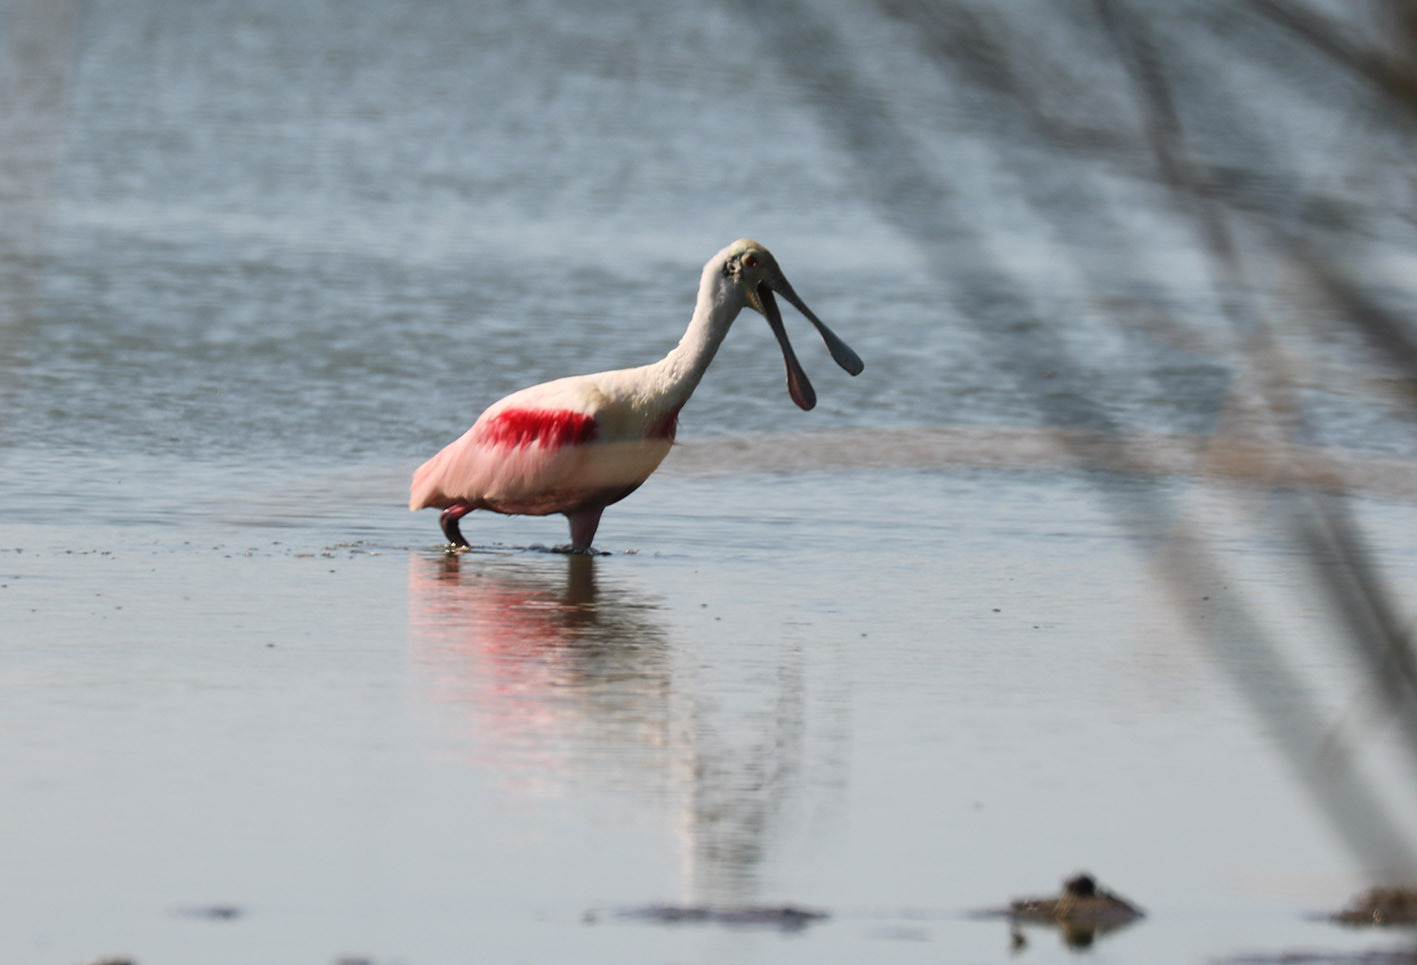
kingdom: Animalia
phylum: Chordata
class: Aves
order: Pelecaniformes
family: Threskiornithidae
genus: Platalea
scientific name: Platalea ajaja
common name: Roseate spoonbill
